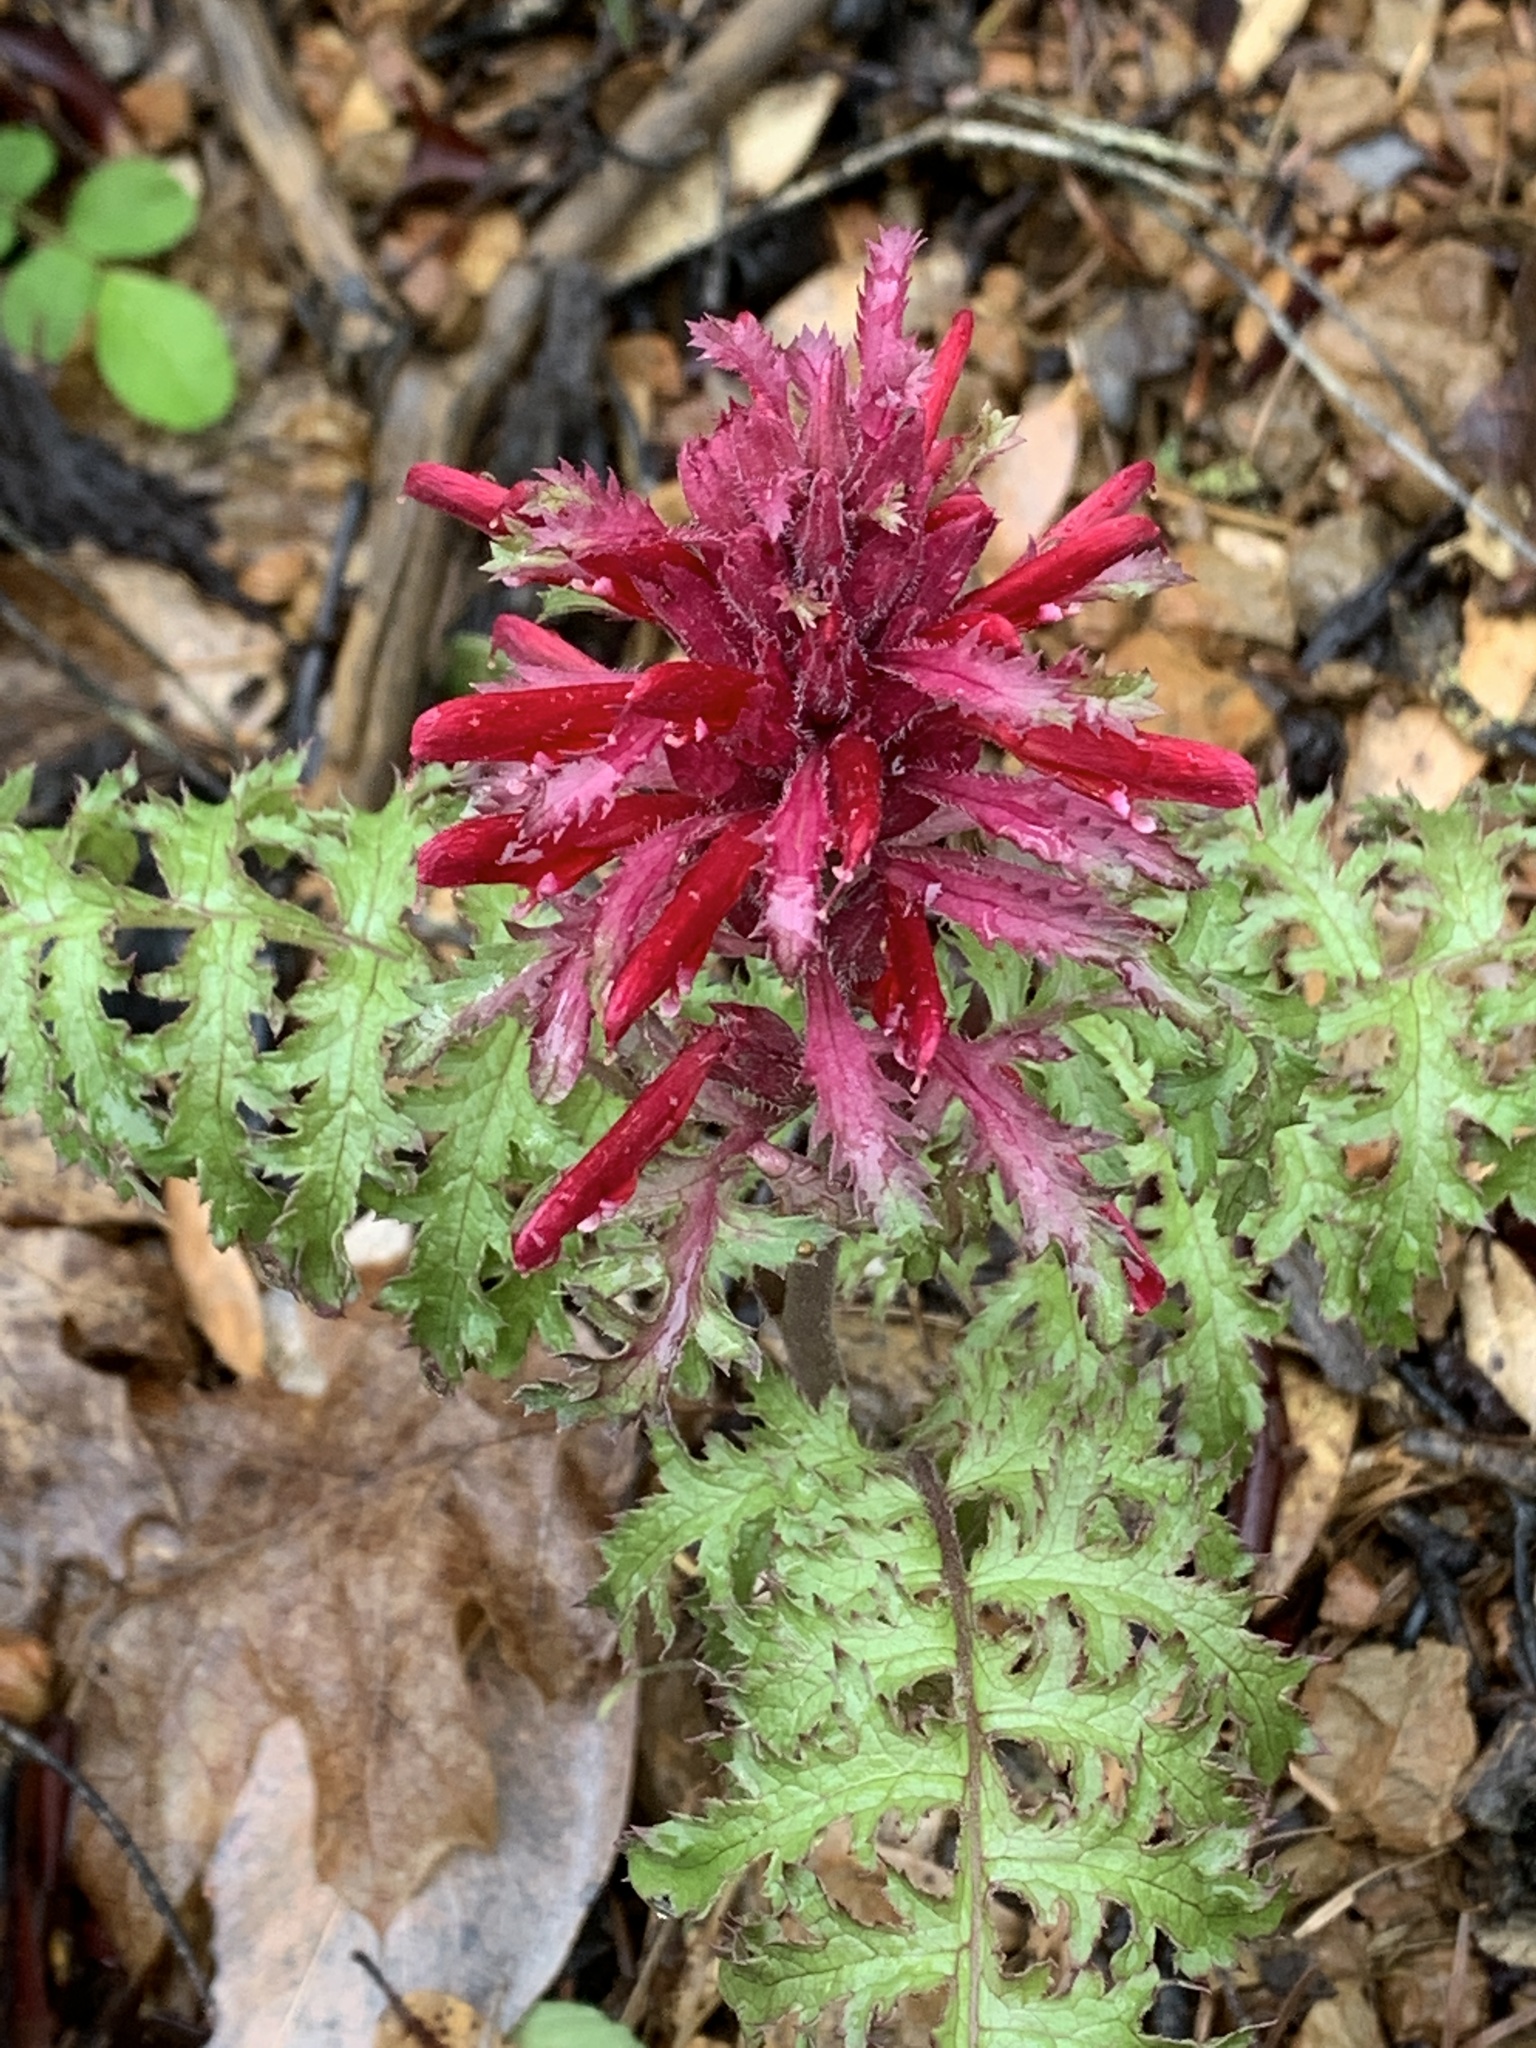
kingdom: Plantae
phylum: Tracheophyta
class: Magnoliopsida
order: Lamiales
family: Orobanchaceae
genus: Pedicularis
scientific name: Pedicularis densiflora
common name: Indian warrior
